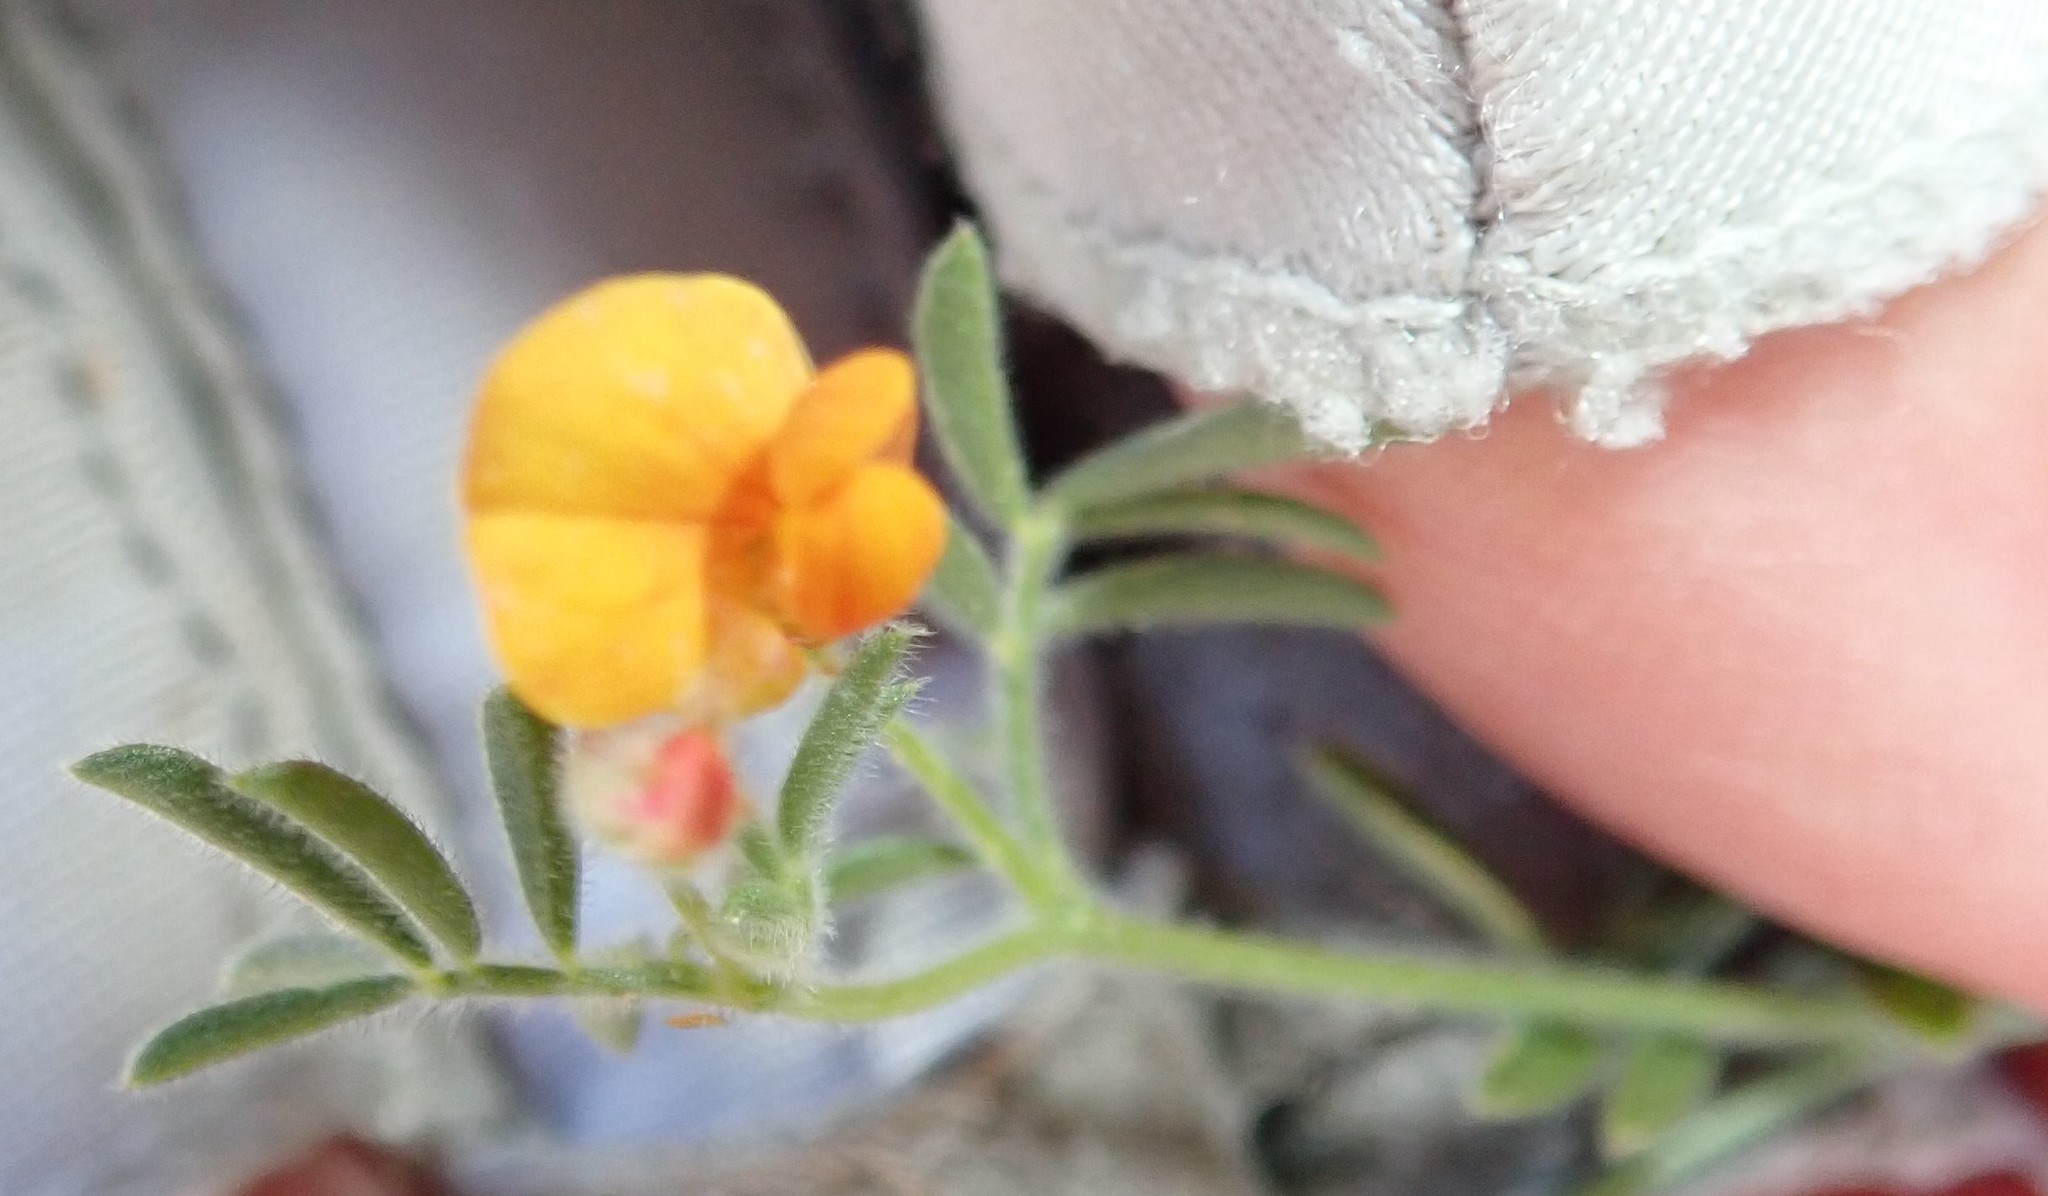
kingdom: Plantae
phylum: Tracheophyta
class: Magnoliopsida
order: Fabales
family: Fabaceae
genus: Acmispon
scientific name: Acmispon strigosus
